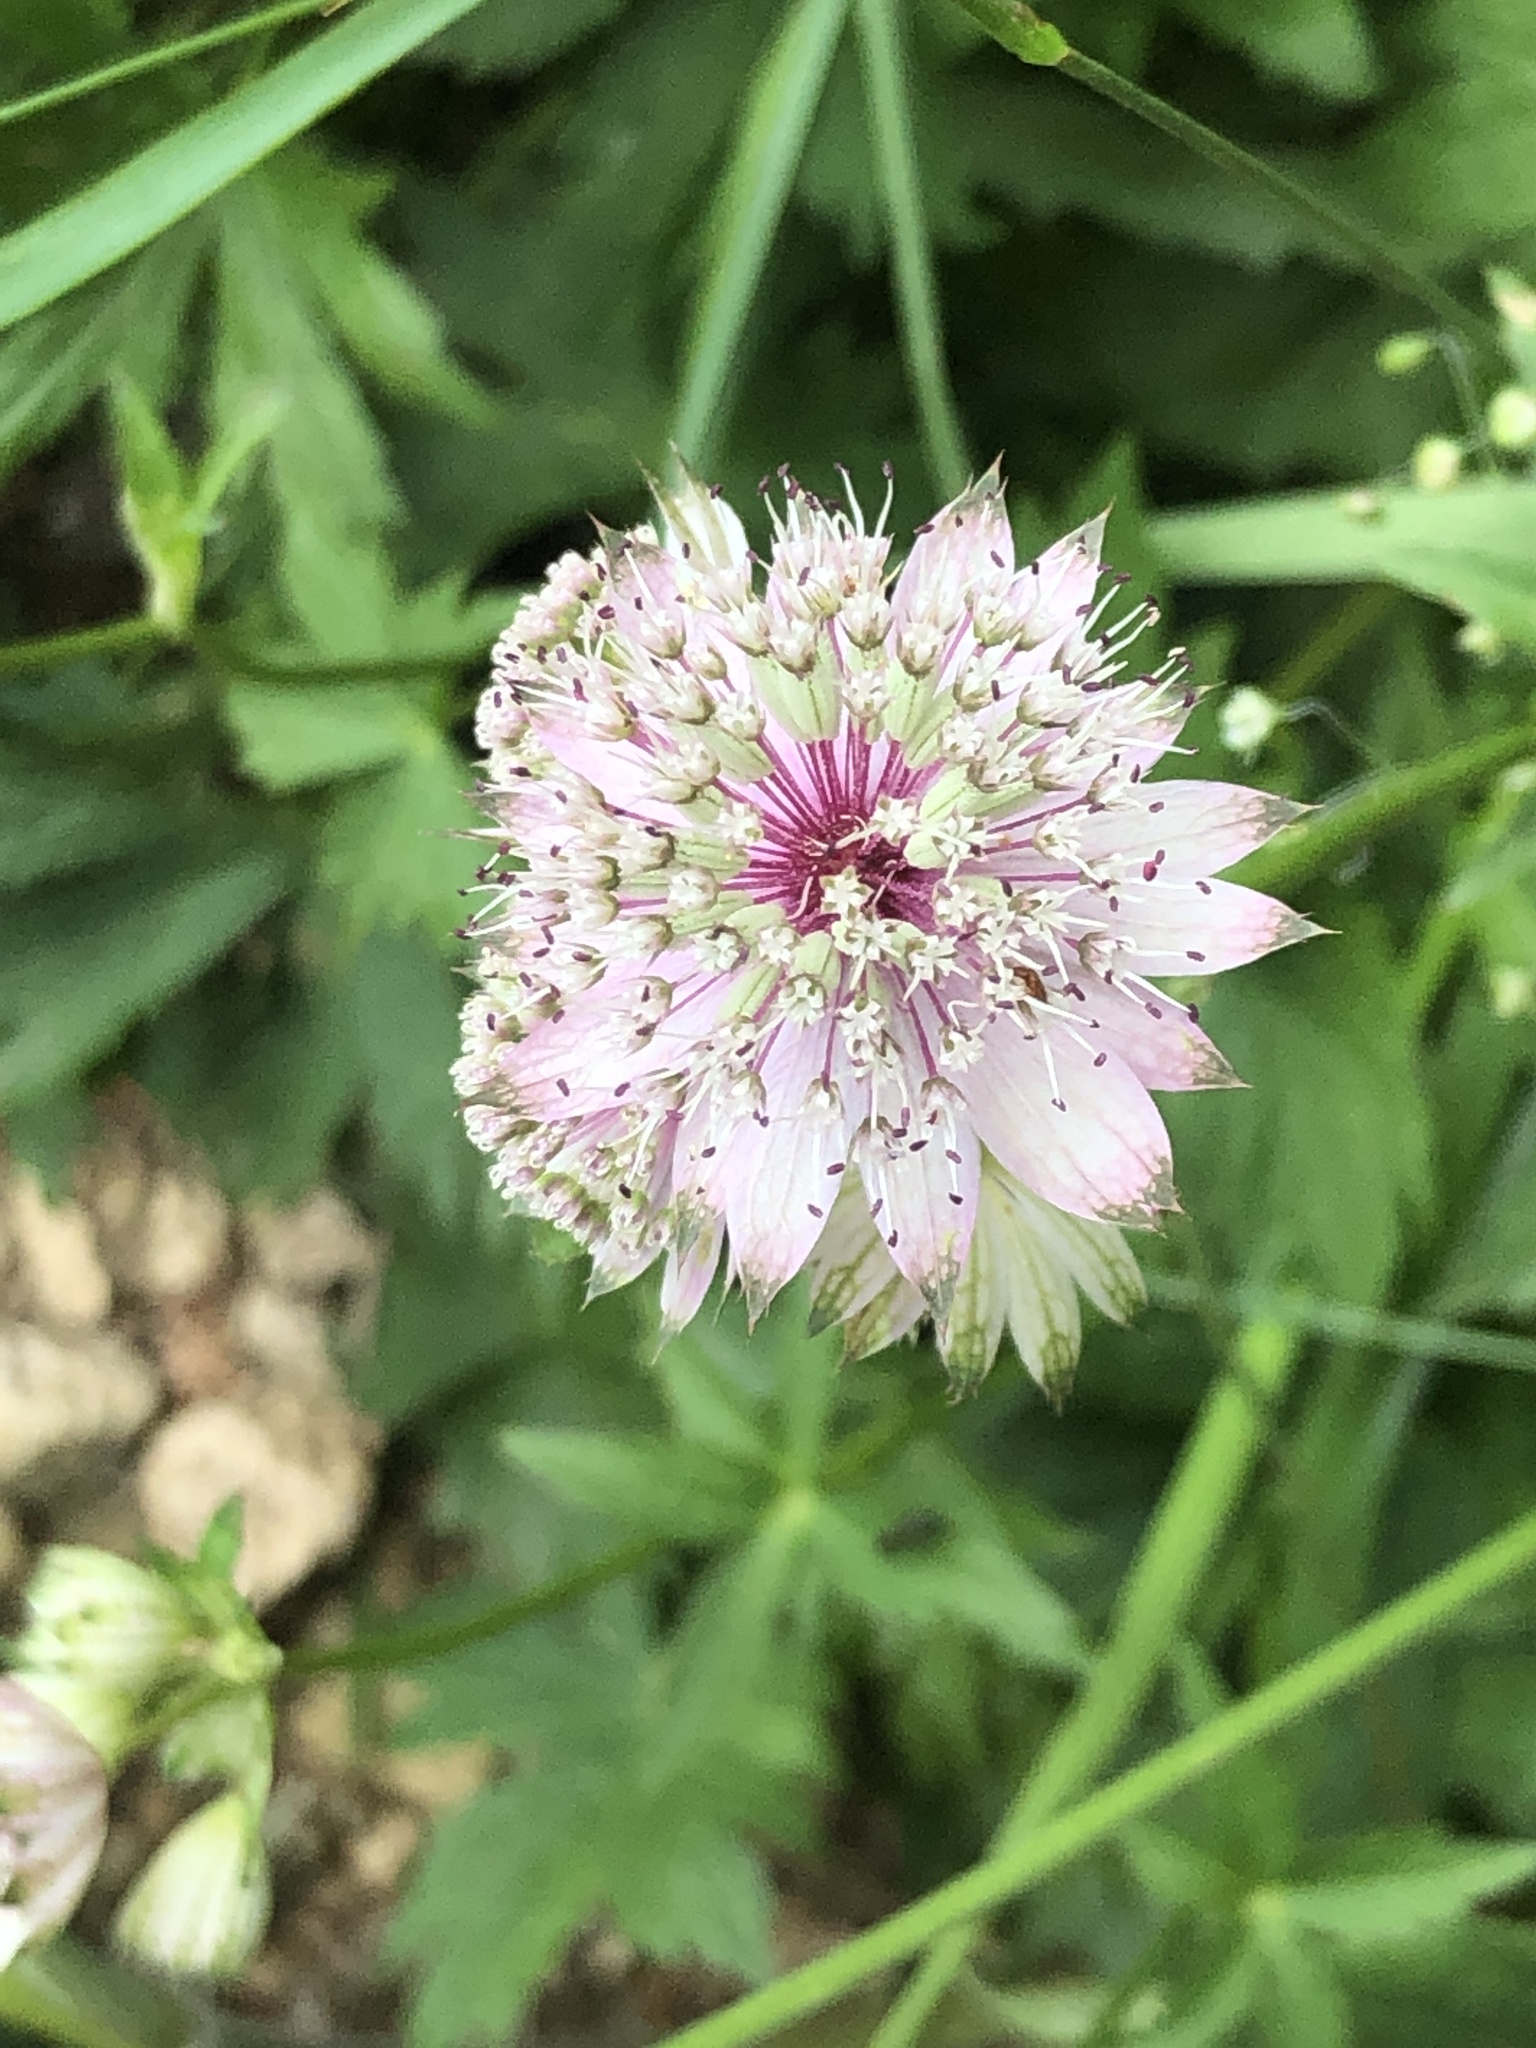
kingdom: Plantae
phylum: Tracheophyta
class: Magnoliopsida
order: Apiales
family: Apiaceae
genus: Astrantia
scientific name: Astrantia major
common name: Greater masterwort
